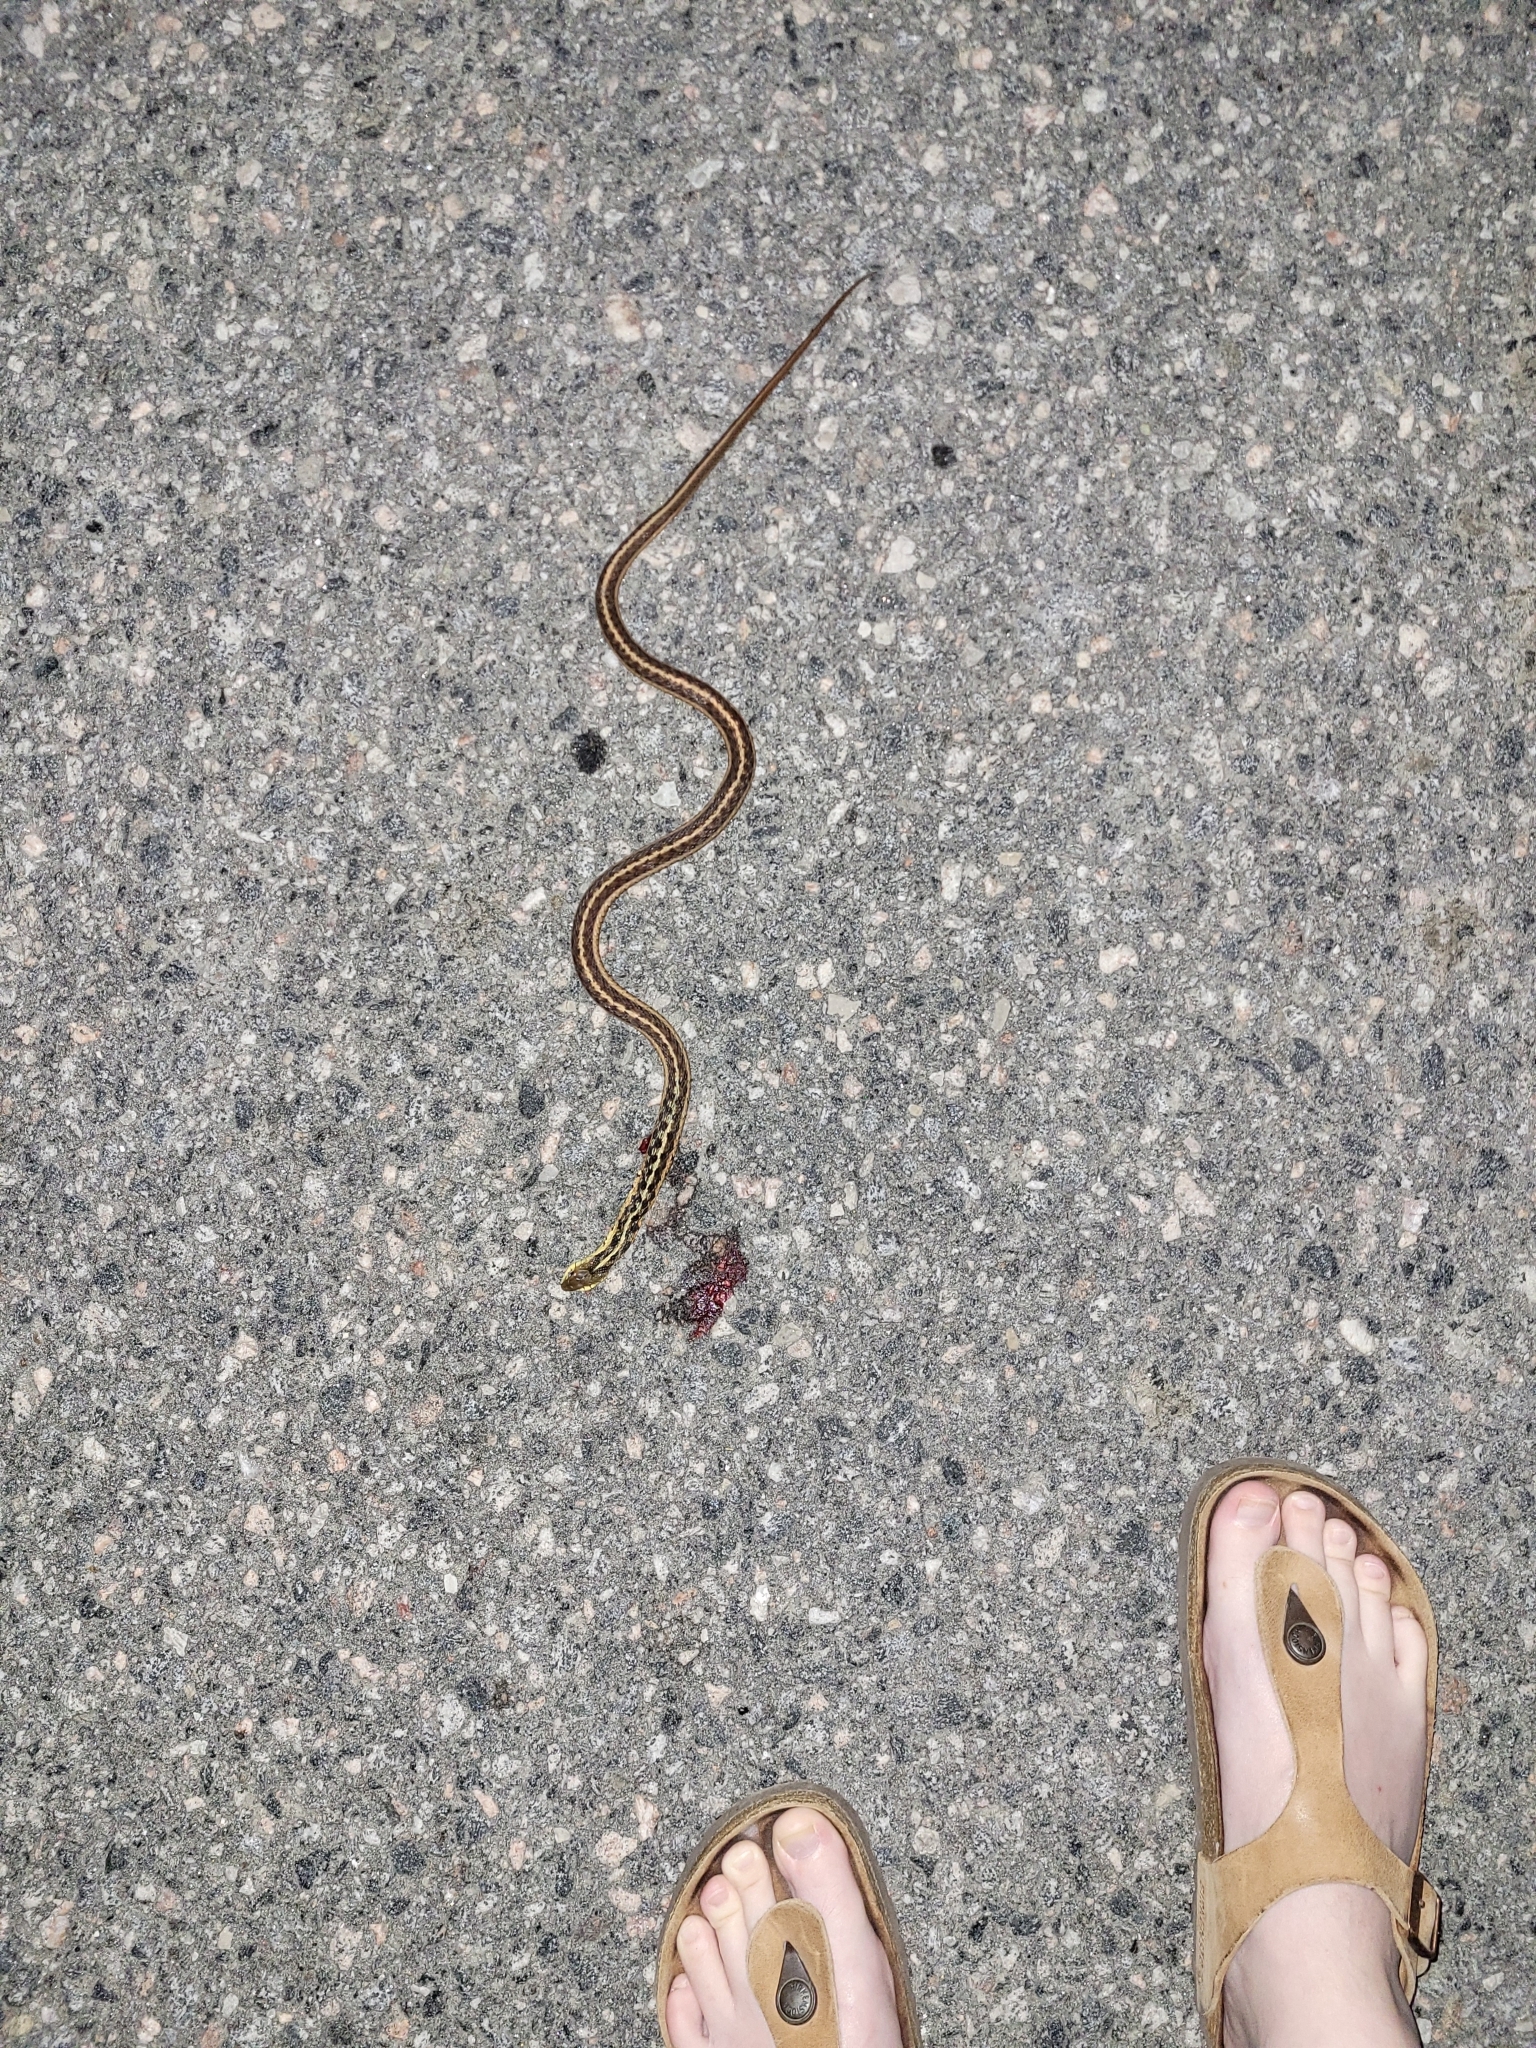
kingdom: Animalia
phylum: Chordata
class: Squamata
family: Colubridae
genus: Thamnophis
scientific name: Thamnophis sirtalis
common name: Common garter snake
